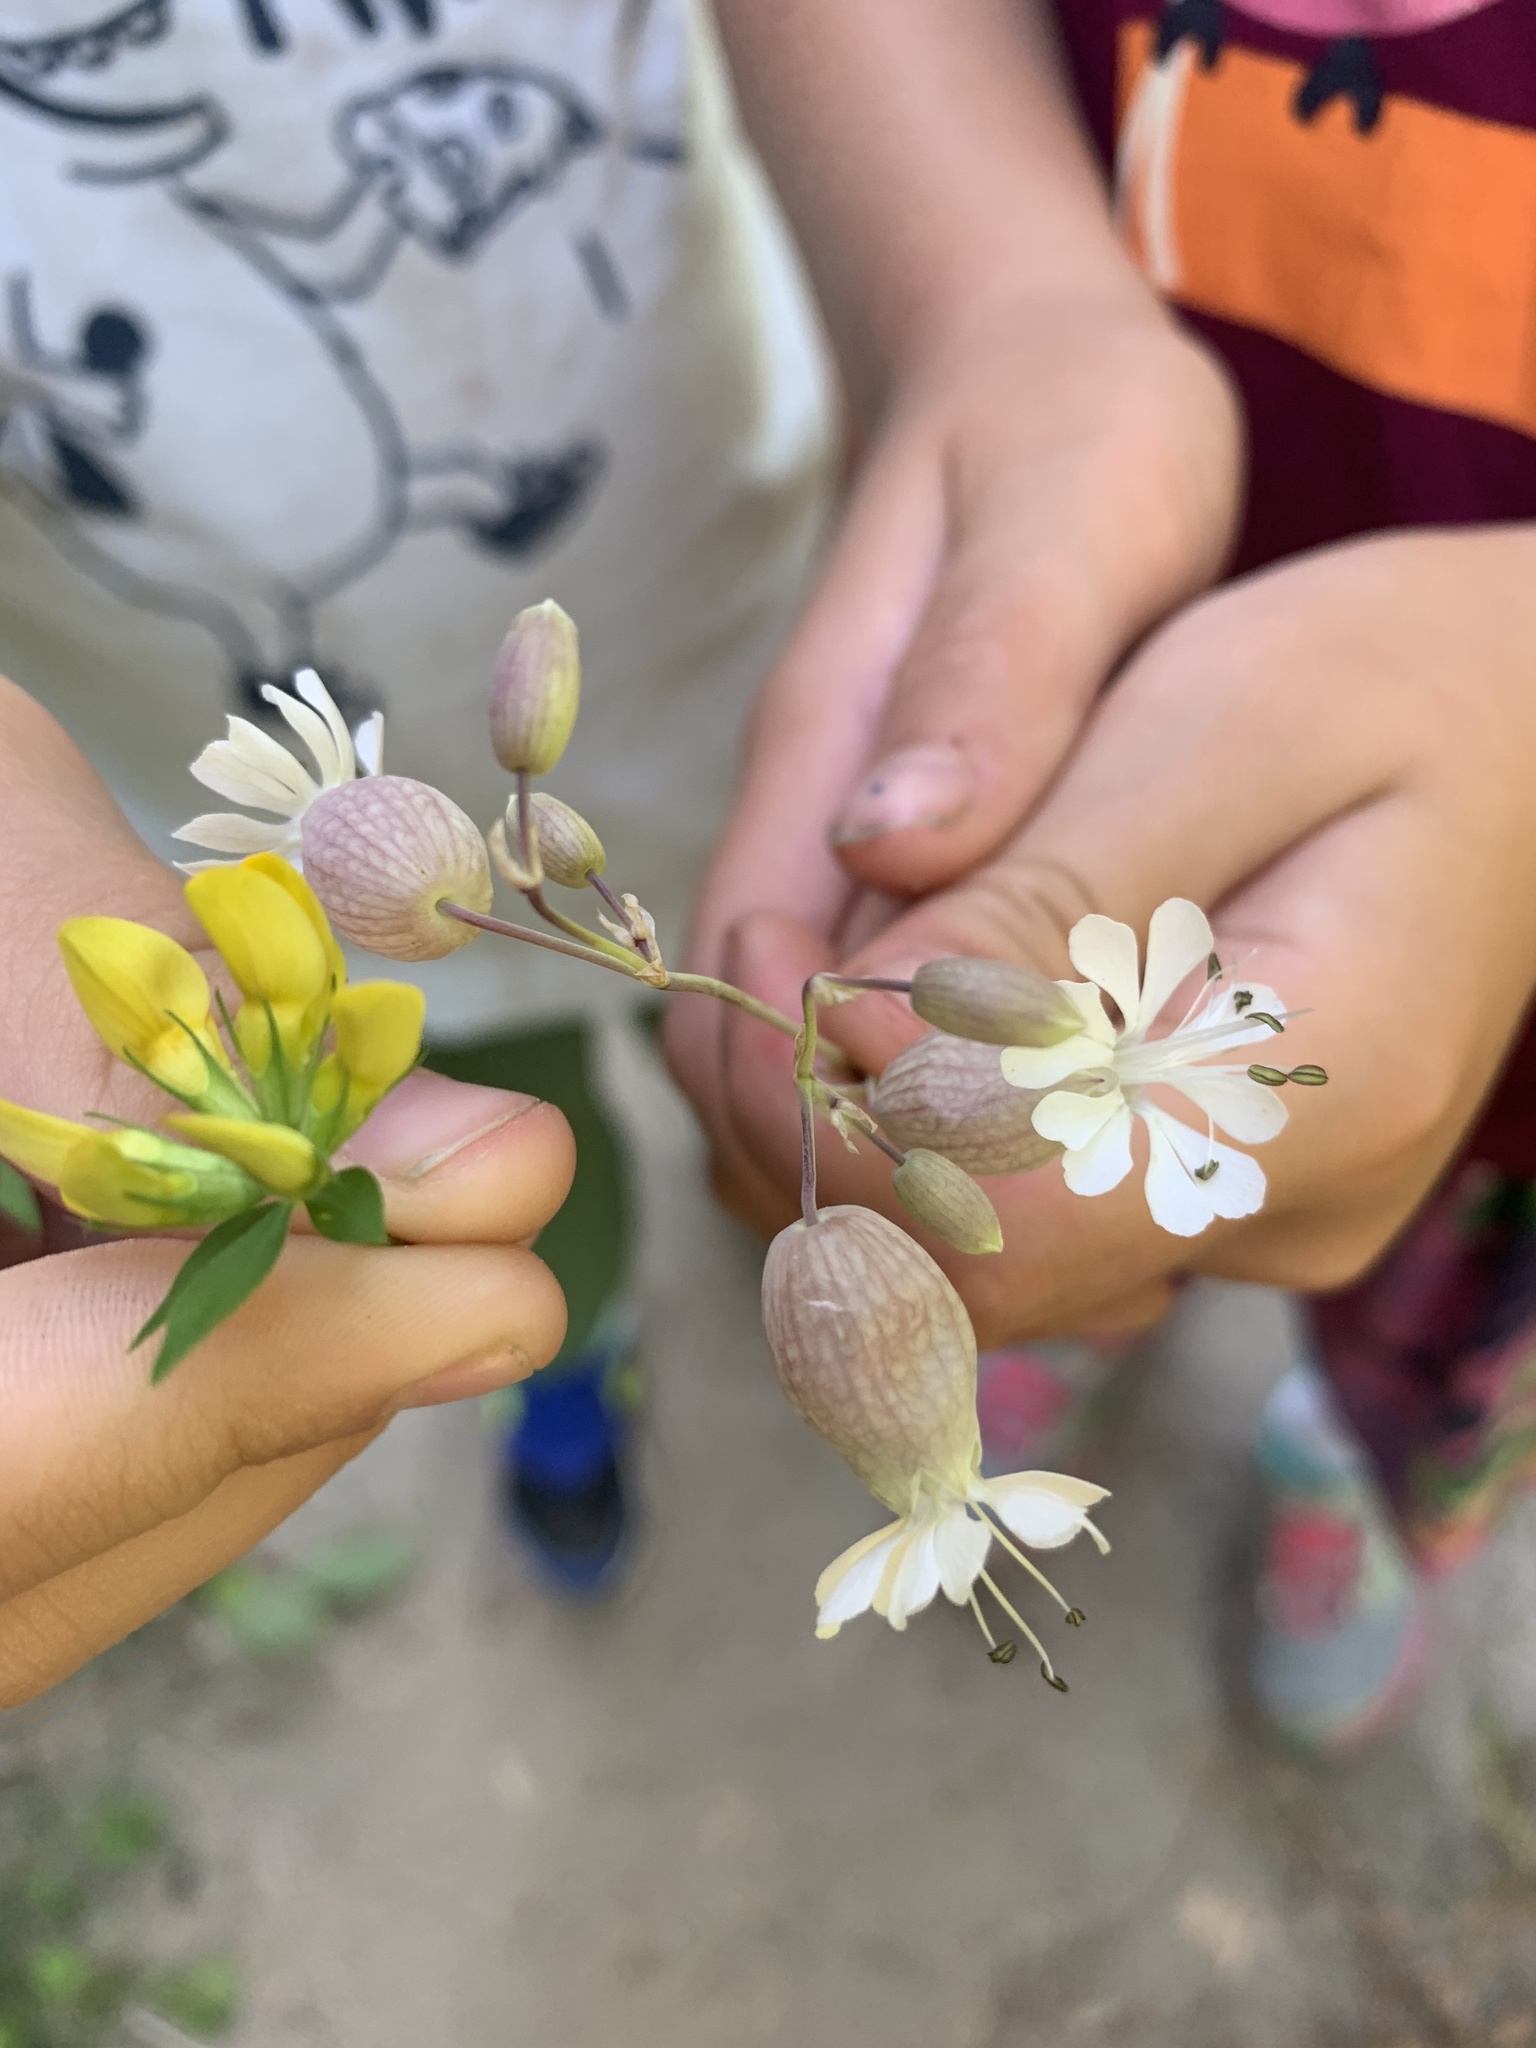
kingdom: Plantae
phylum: Tracheophyta
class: Magnoliopsida
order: Caryophyllales
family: Caryophyllaceae
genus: Silene
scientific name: Silene vulgaris
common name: Bladder campion
